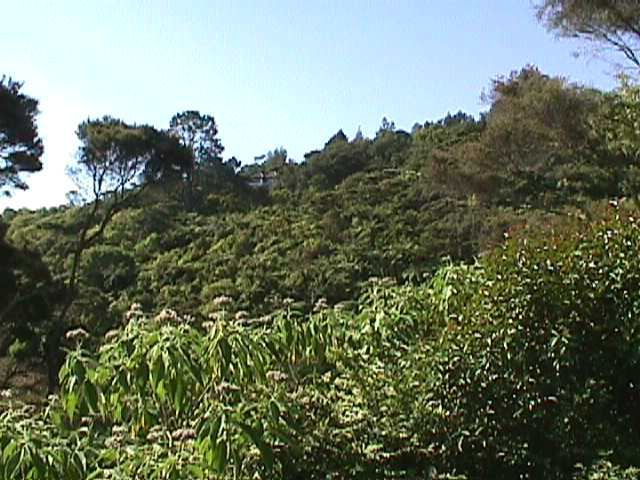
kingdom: Plantae
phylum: Tracheophyta
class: Magnoliopsida
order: Solanales
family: Solanaceae
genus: Solanum
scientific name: Solanum mauritianum
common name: Earleaf nightshade
